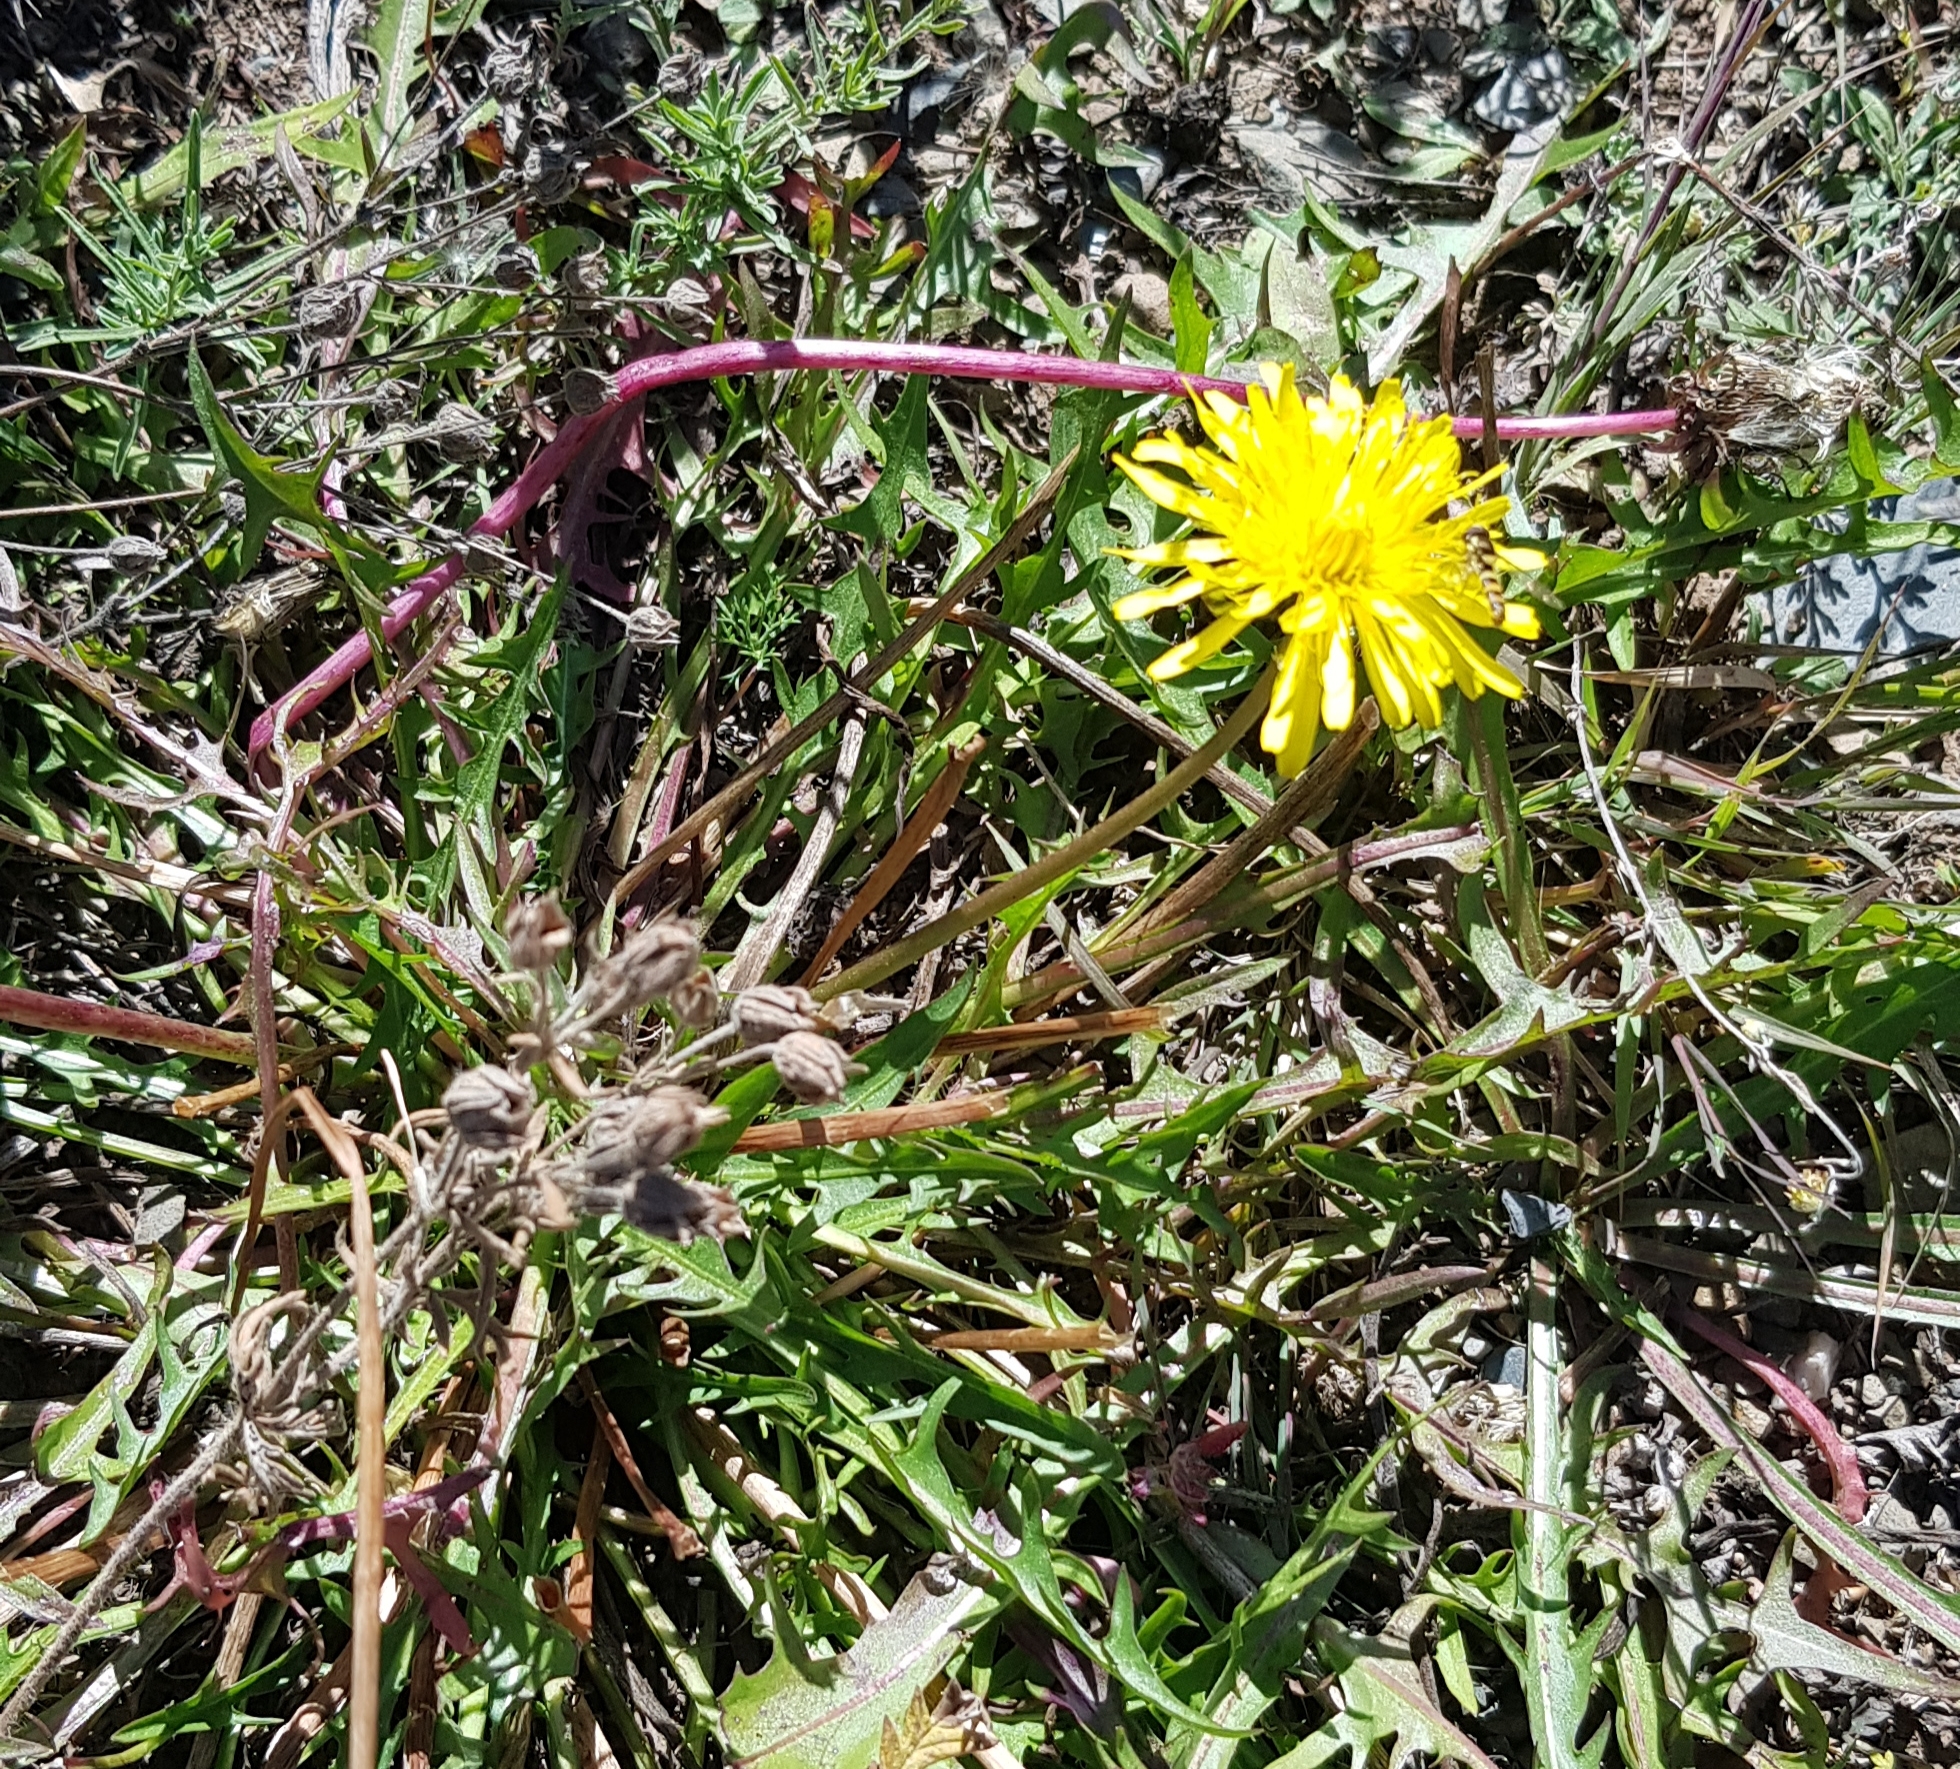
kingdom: Plantae
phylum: Tracheophyta
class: Magnoliopsida
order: Asterales
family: Asteraceae
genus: Taraxacum
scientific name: Taraxacum officinale
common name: Common dandelion
